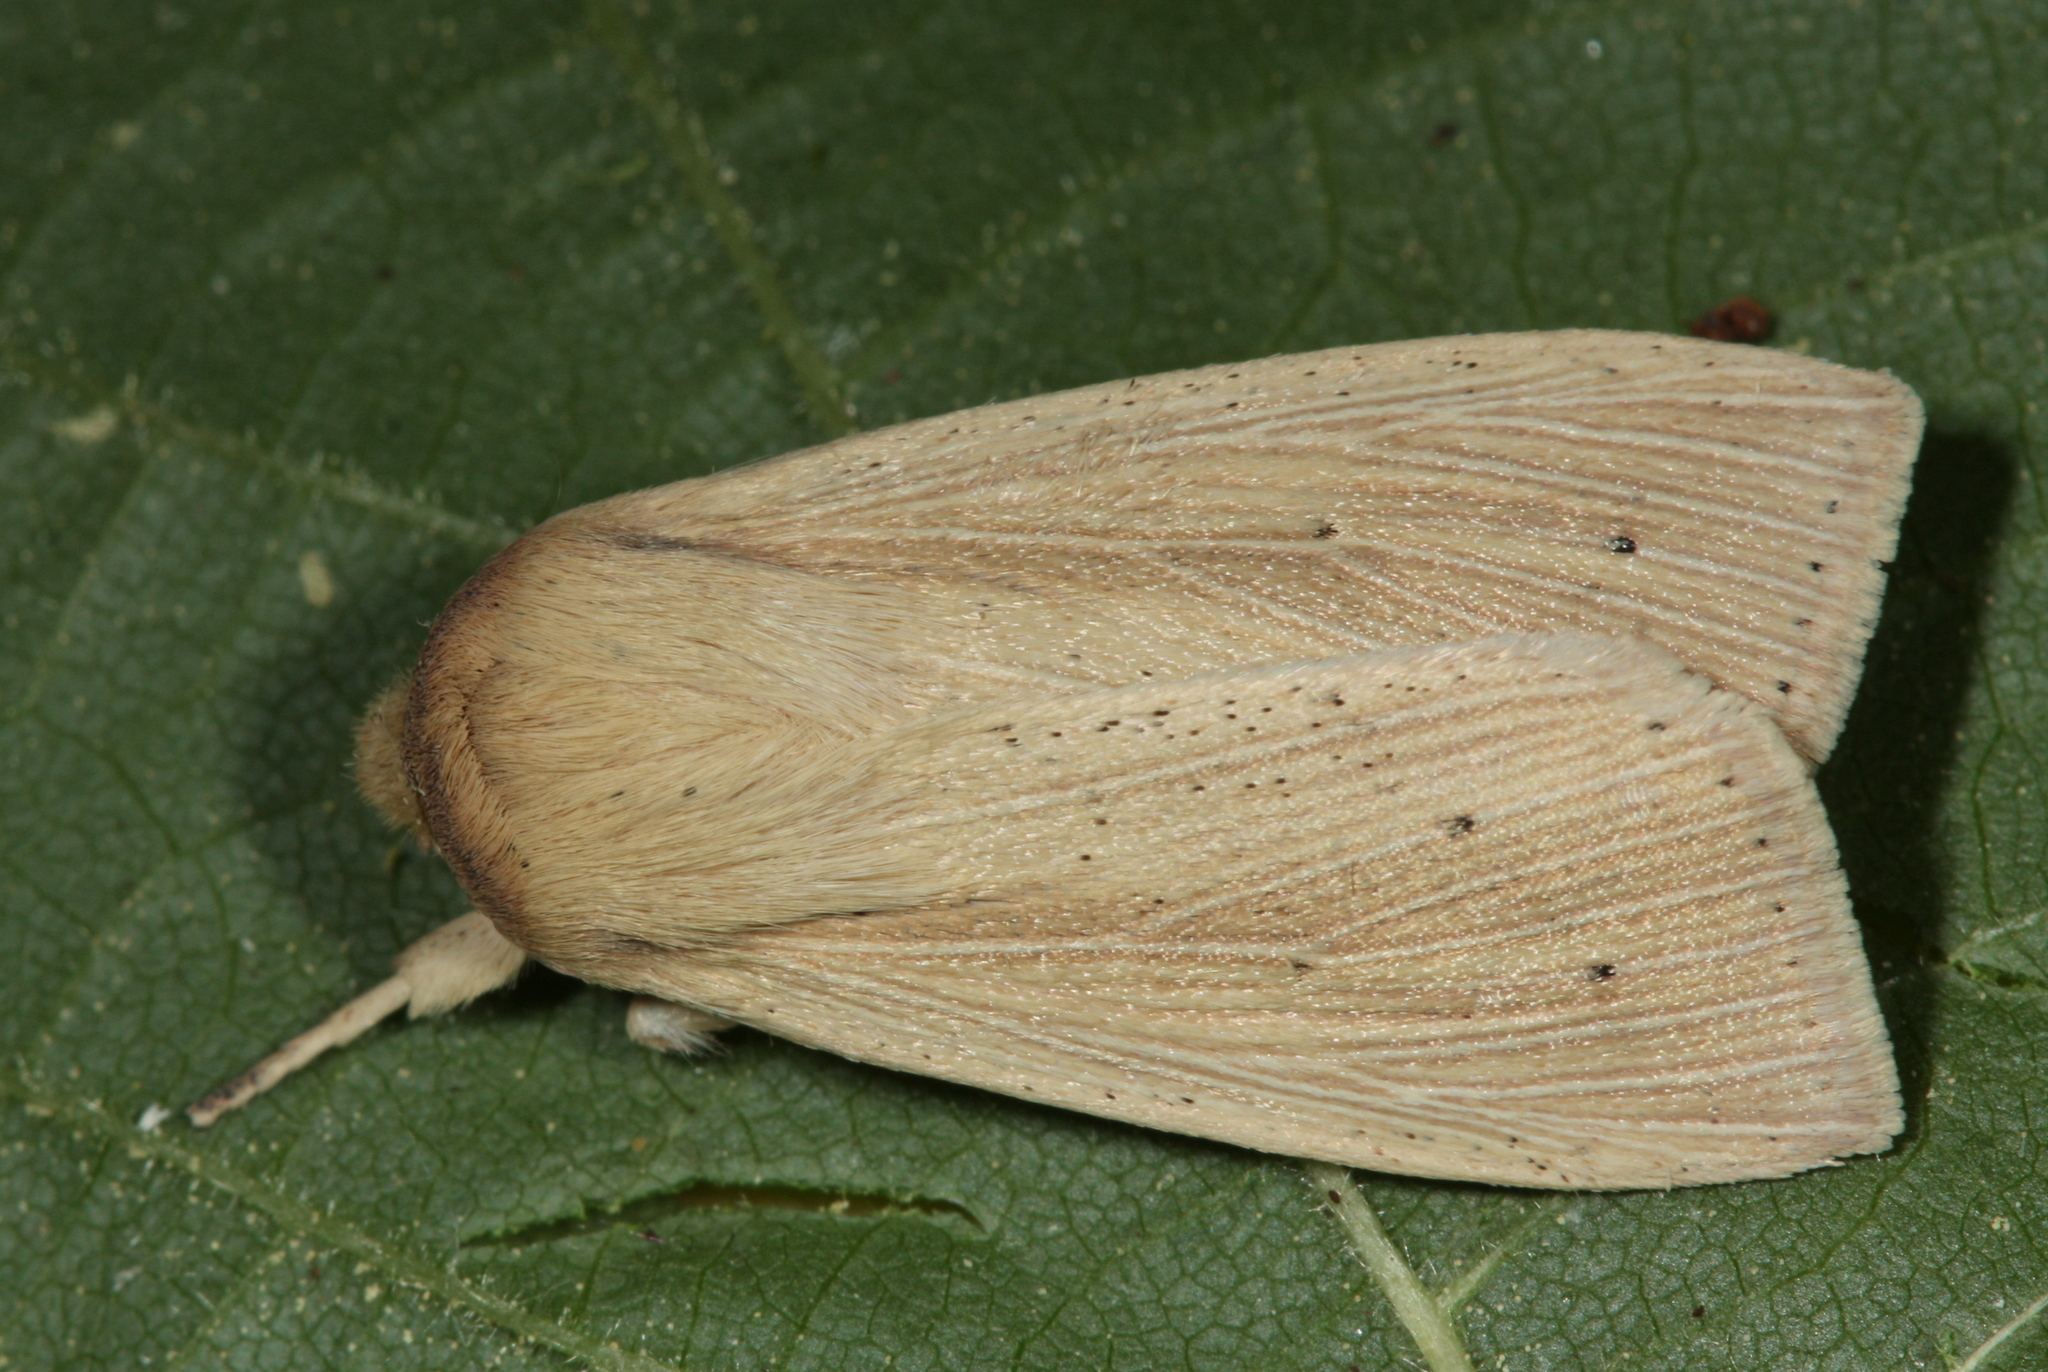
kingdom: Animalia
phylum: Arthropoda
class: Insecta
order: Lepidoptera
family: Noctuidae
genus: Mythimna
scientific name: Mythimna straminea
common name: Southern wainscot
